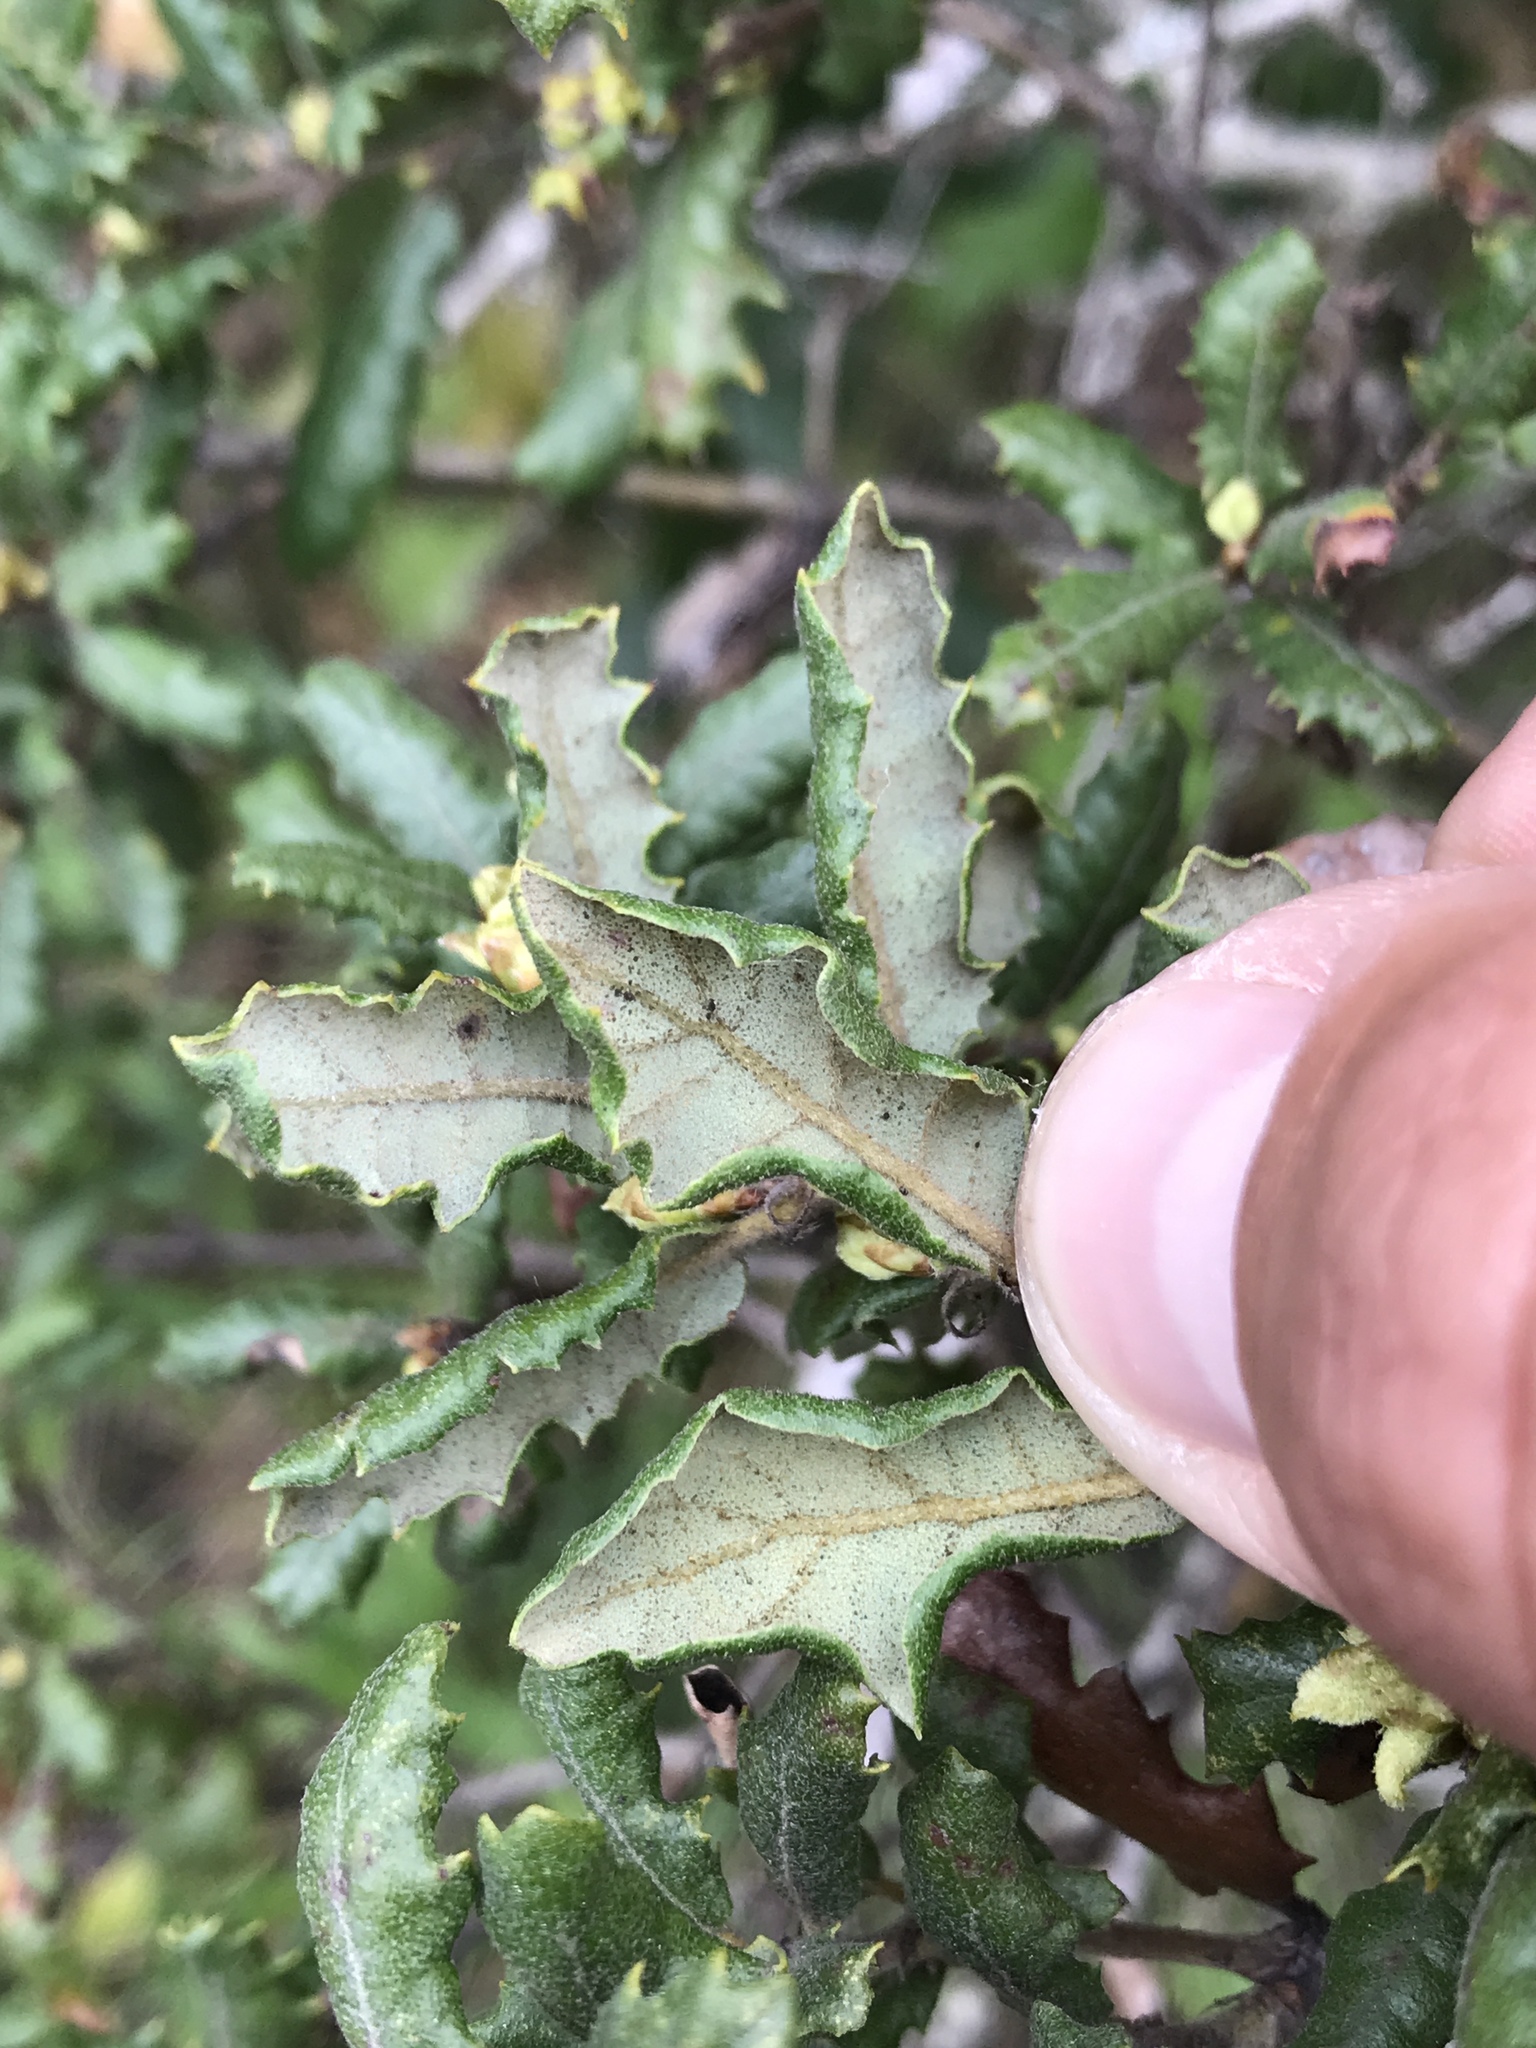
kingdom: Plantae
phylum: Tracheophyta
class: Magnoliopsida
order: Fagales
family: Fagaceae
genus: Quercus
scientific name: Quercus durata
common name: Leather oak
